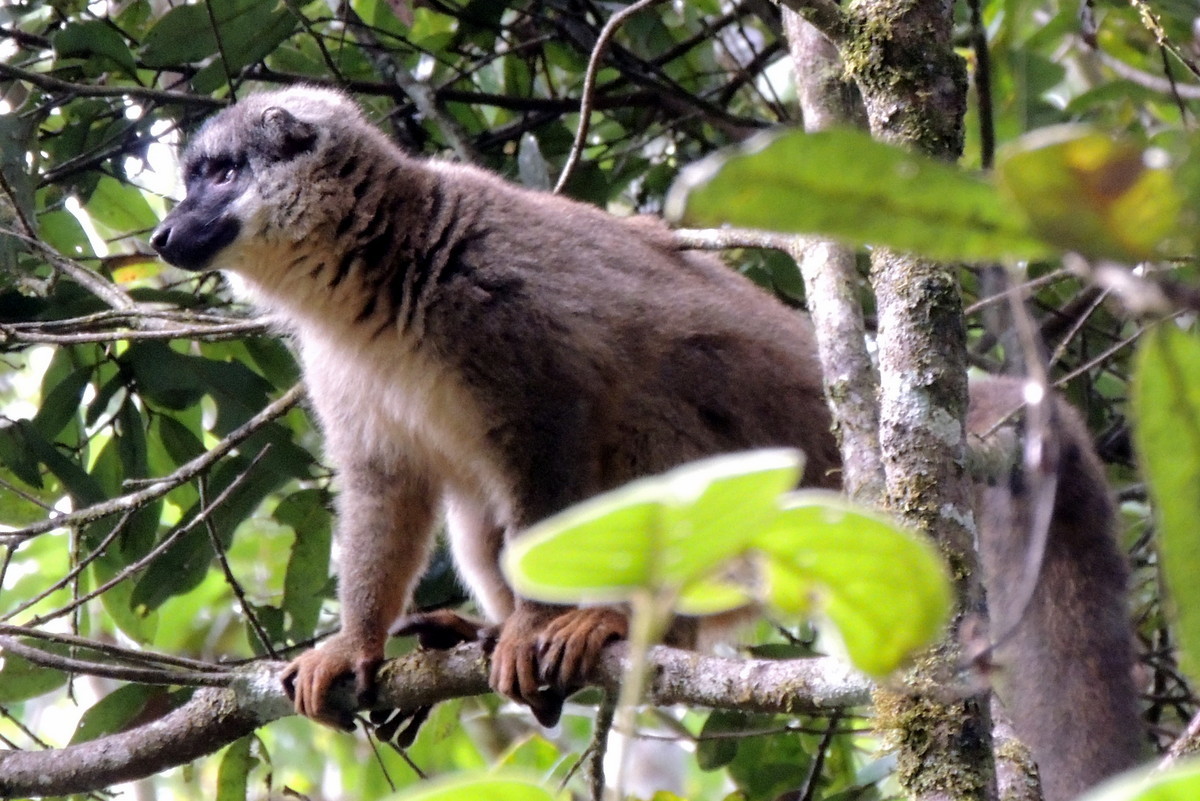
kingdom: Animalia
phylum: Chordata
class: Mammalia
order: Primates
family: Lemuridae
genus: Eulemur
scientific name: Eulemur fulvus
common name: Brown lemur
